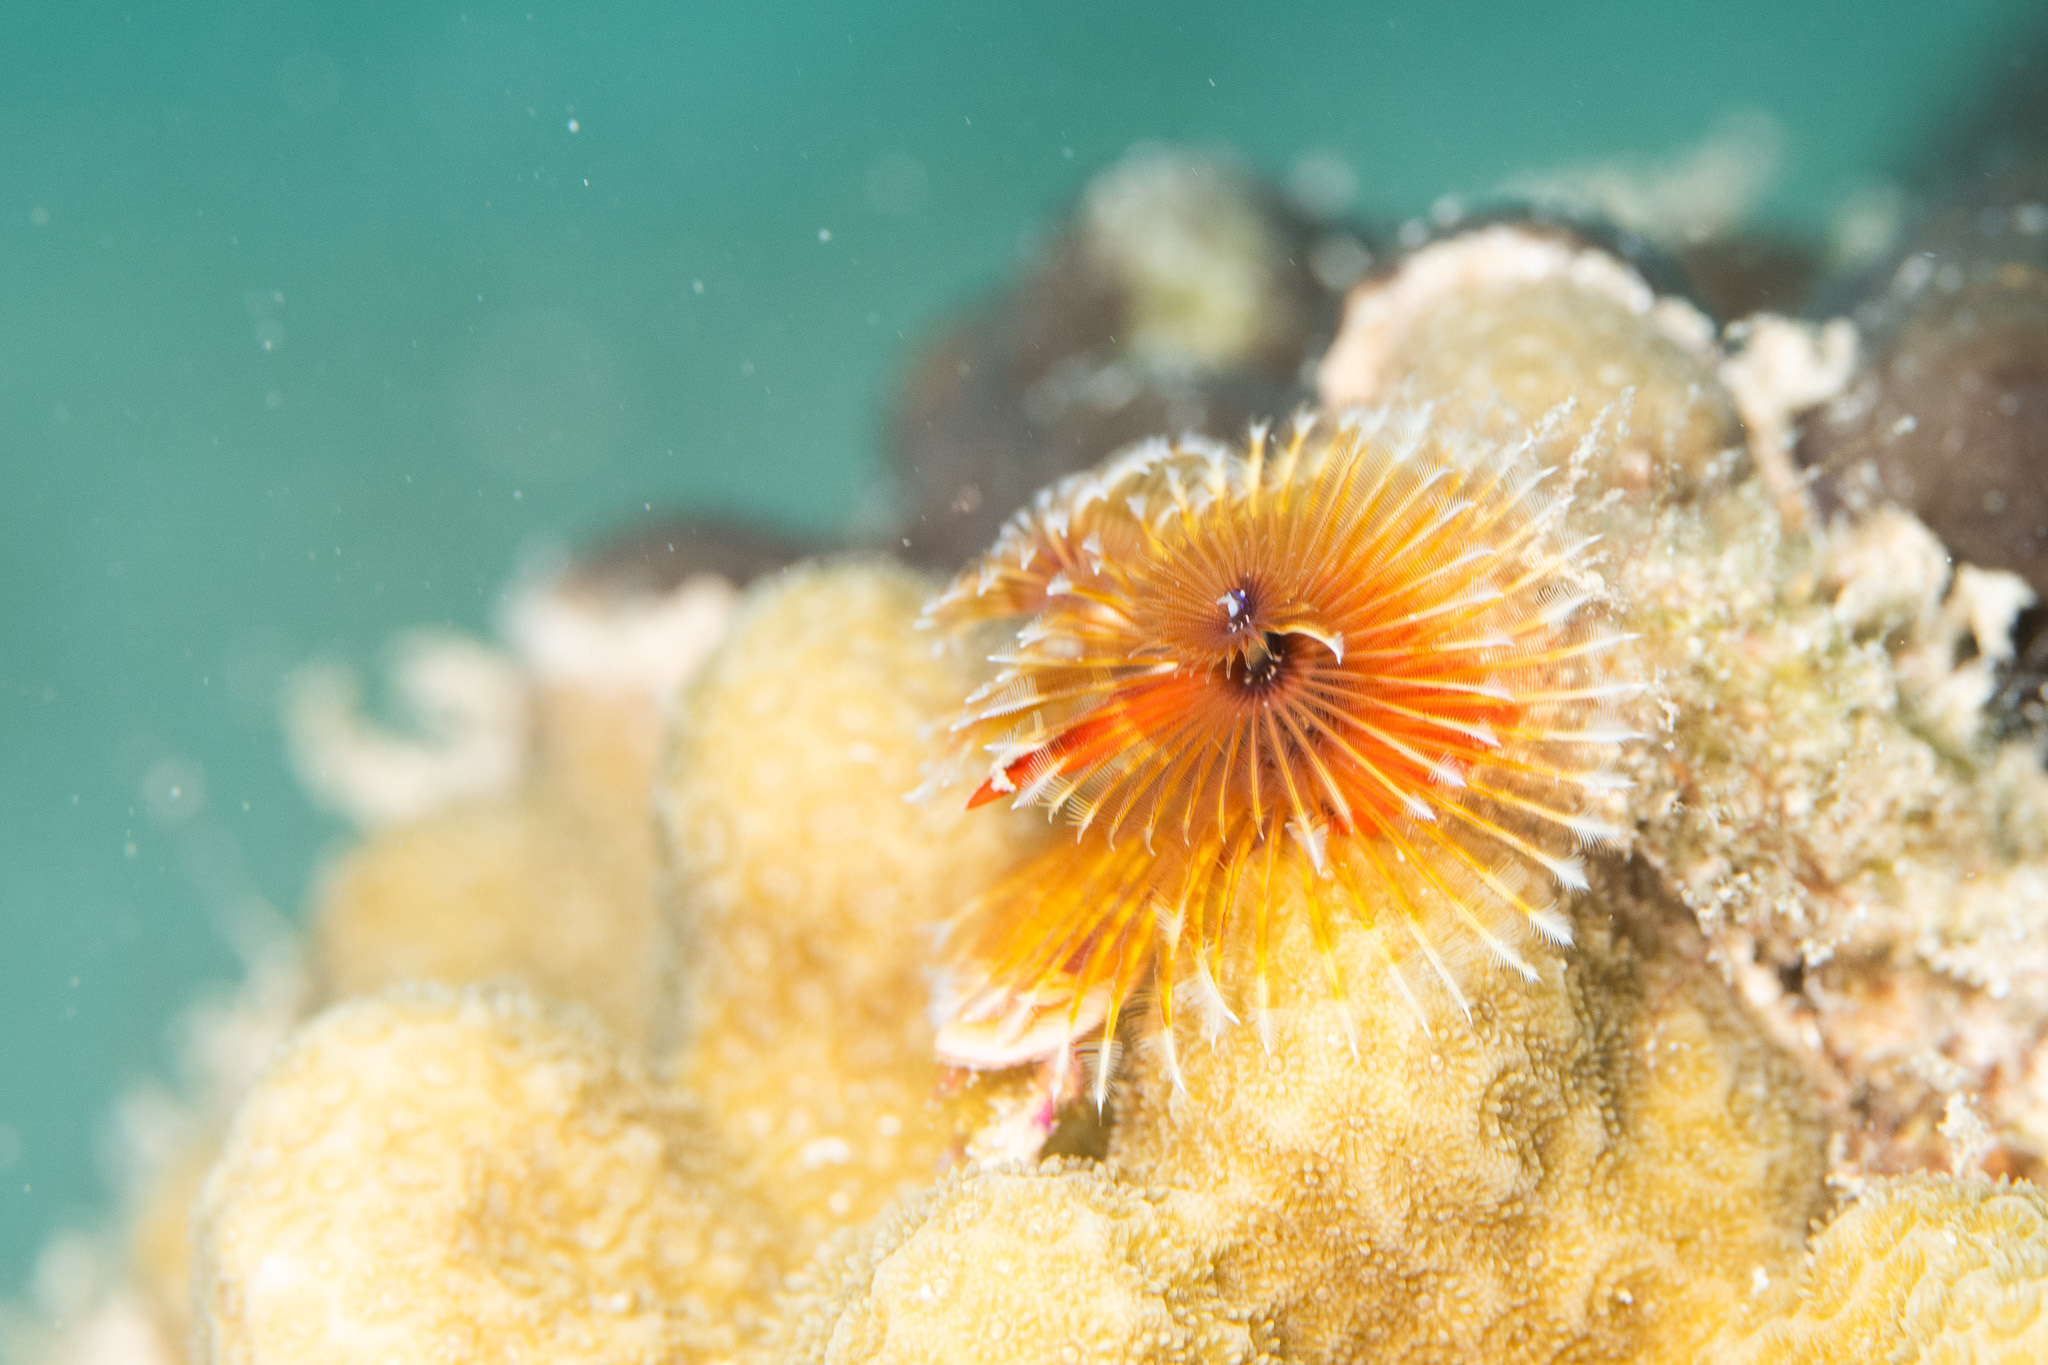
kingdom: Animalia
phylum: Annelida
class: Polychaeta
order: Sabellida
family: Serpulidae
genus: Spirobranchus
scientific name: Spirobranchus giganteus
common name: Christmas tree worm
